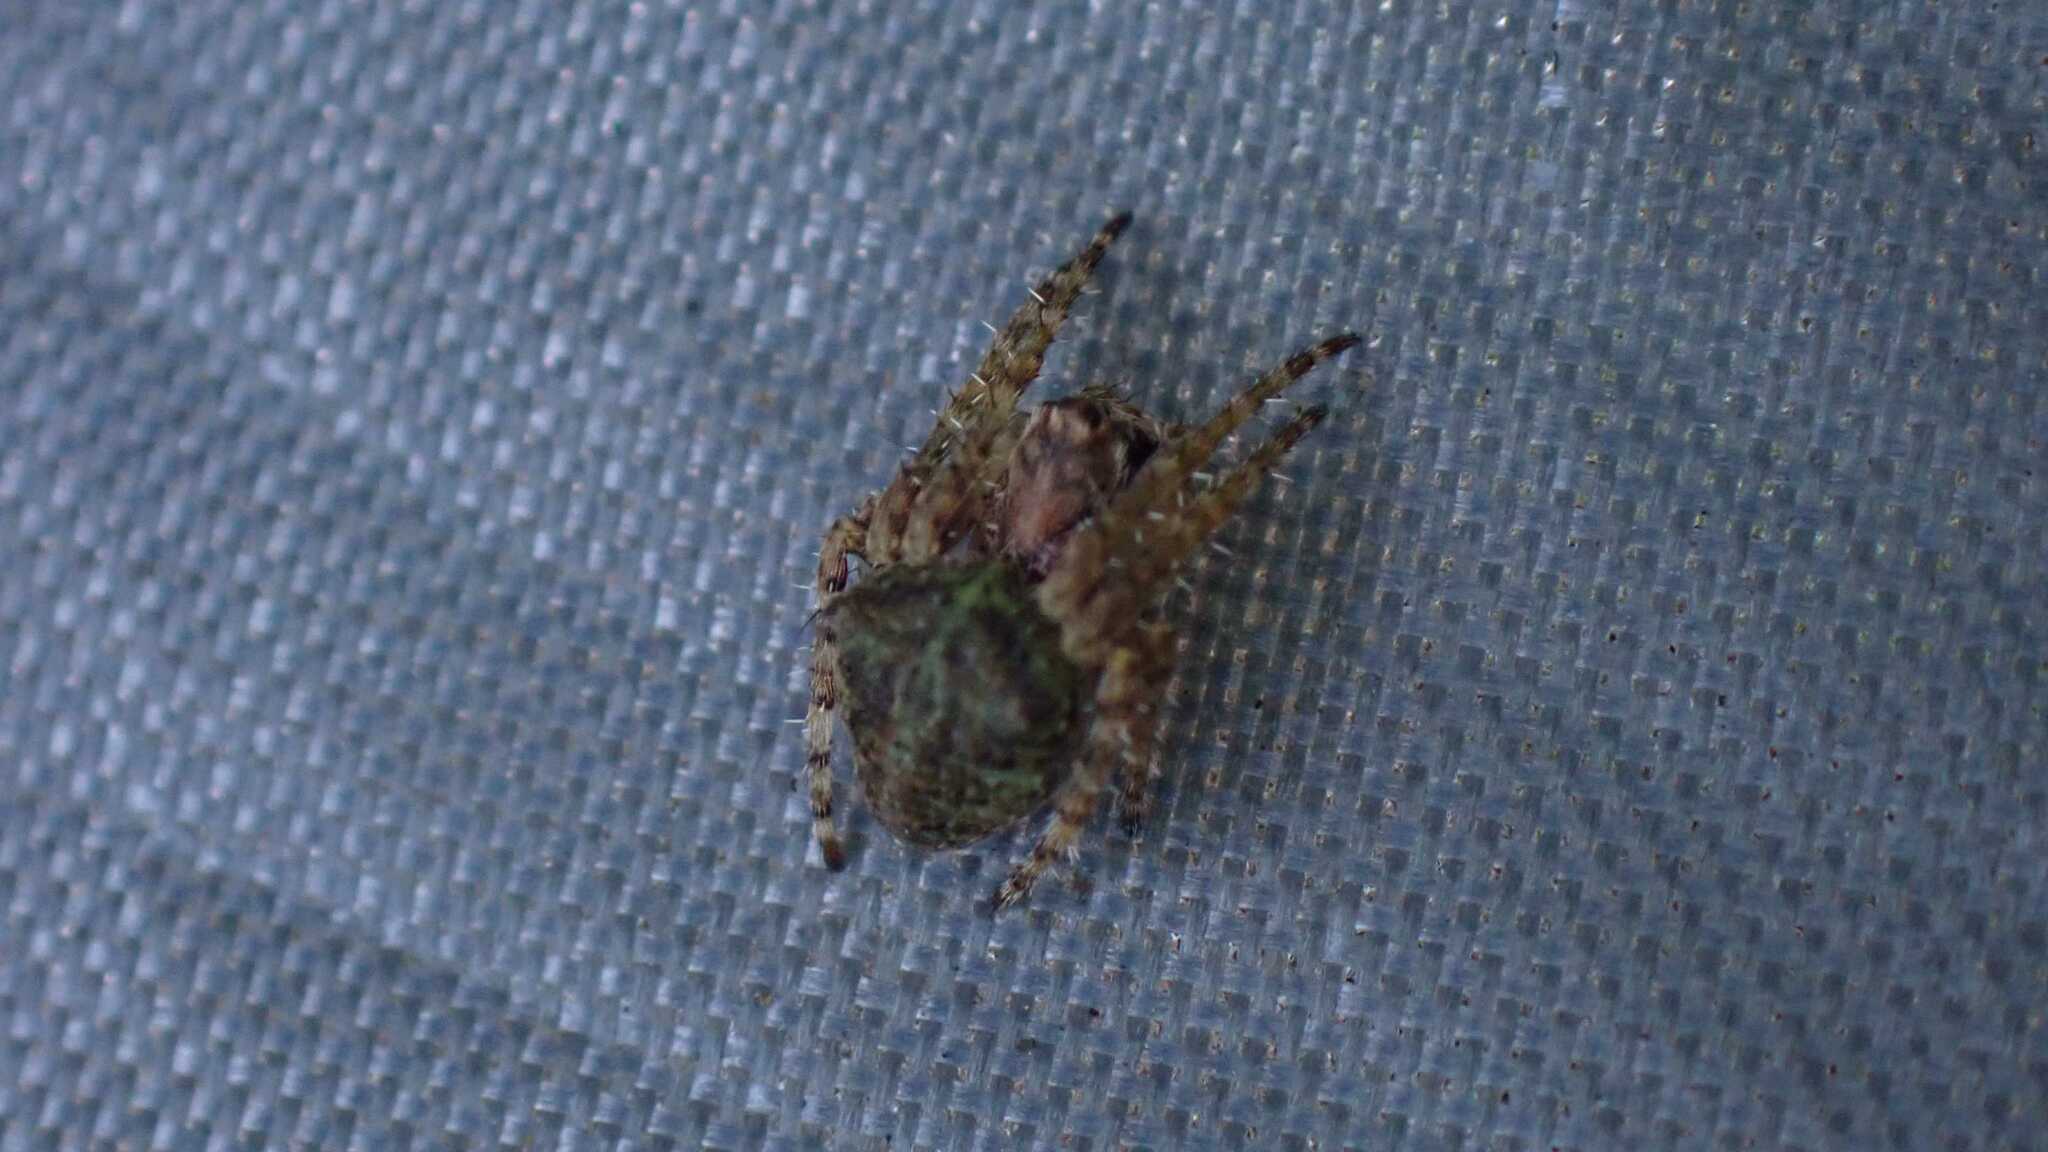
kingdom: Animalia
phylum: Arthropoda
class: Arachnida
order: Araneae
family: Araneidae
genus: Gibbaranea
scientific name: Gibbaranea gibbosa
